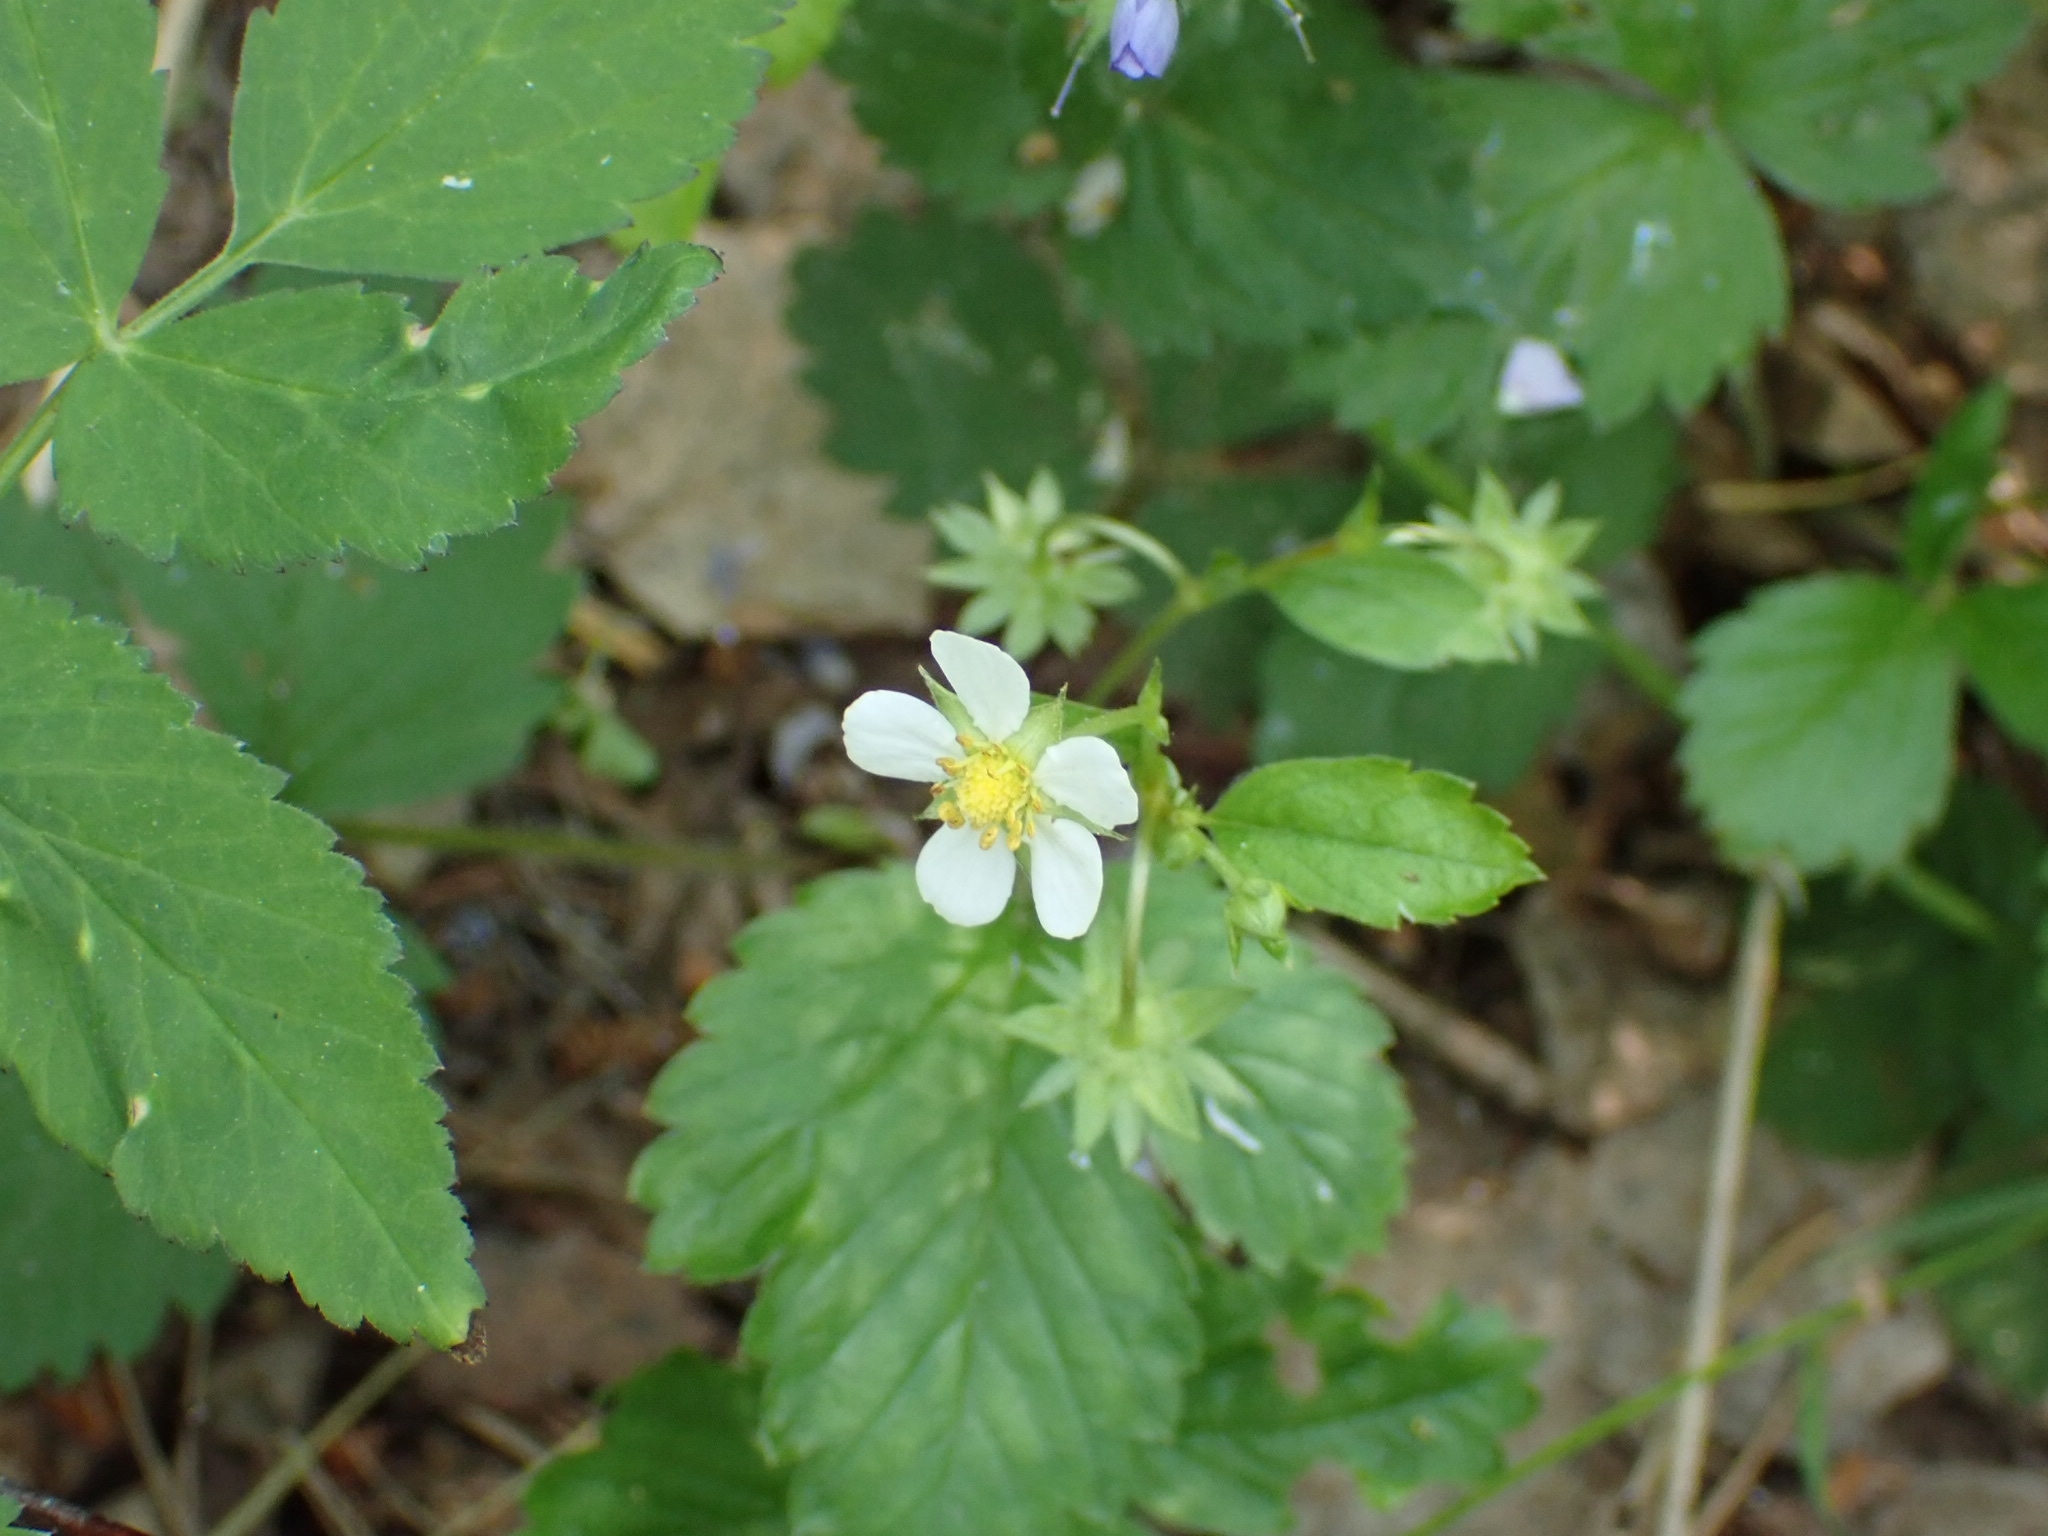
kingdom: Plantae
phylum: Tracheophyta
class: Magnoliopsida
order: Rosales
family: Rosaceae
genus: Fragaria
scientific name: Fragaria vesca
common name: Wild strawberry
